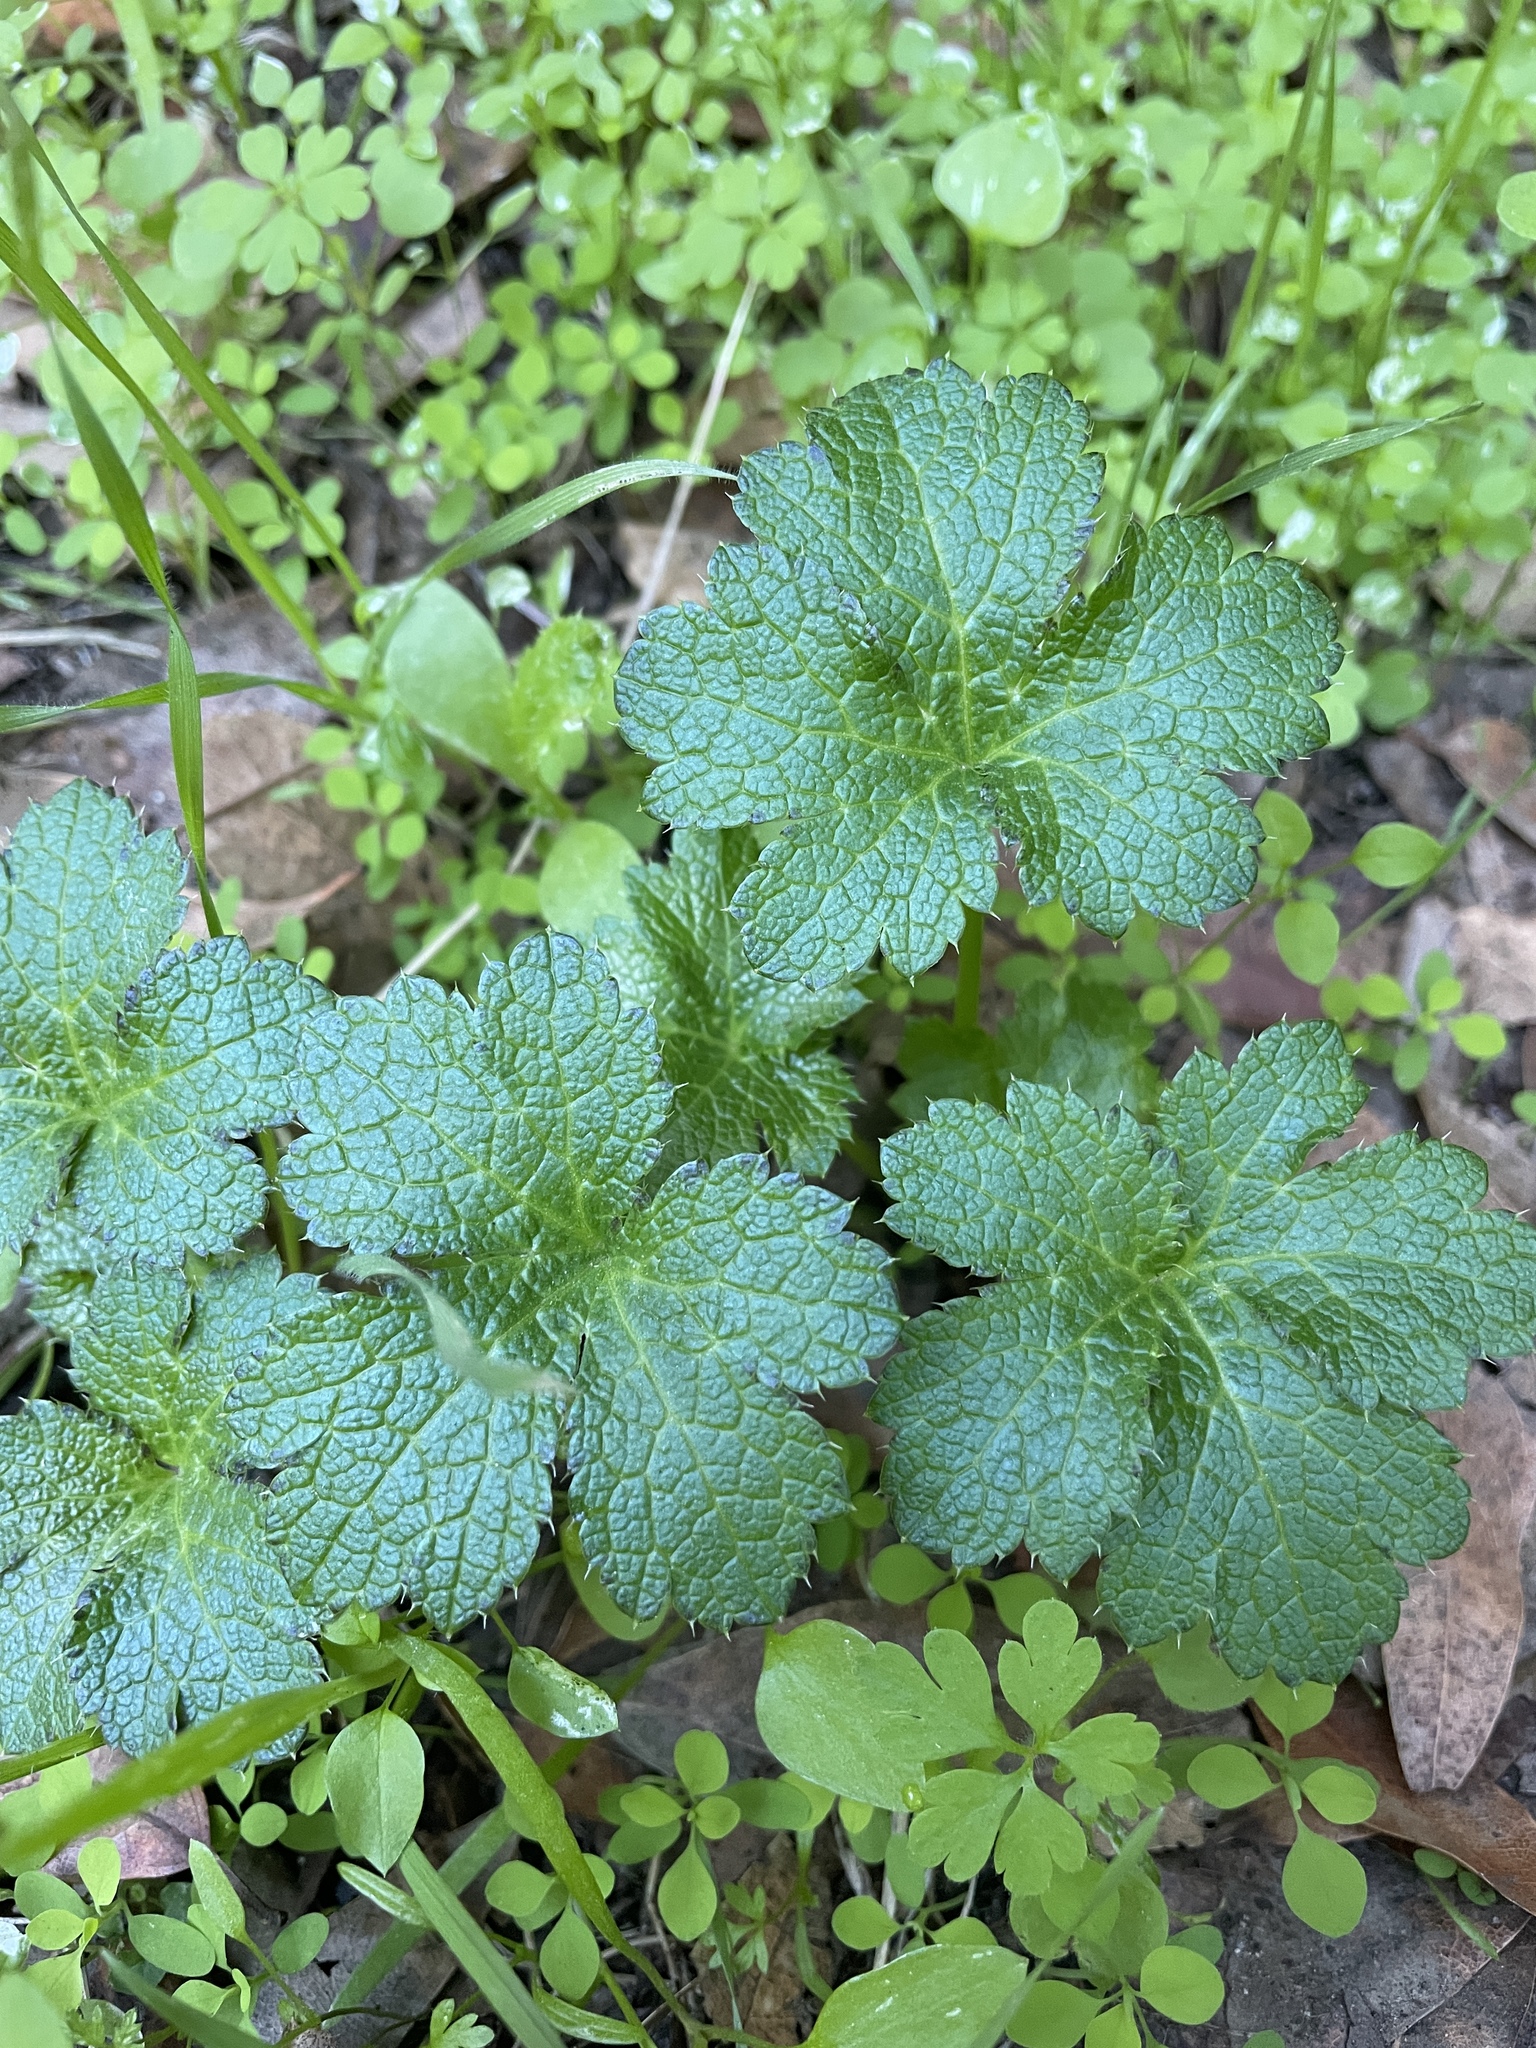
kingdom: Plantae
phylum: Tracheophyta
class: Magnoliopsida
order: Apiales
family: Apiaceae
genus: Sanicula
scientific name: Sanicula crassicaulis
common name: Western snakeroot
